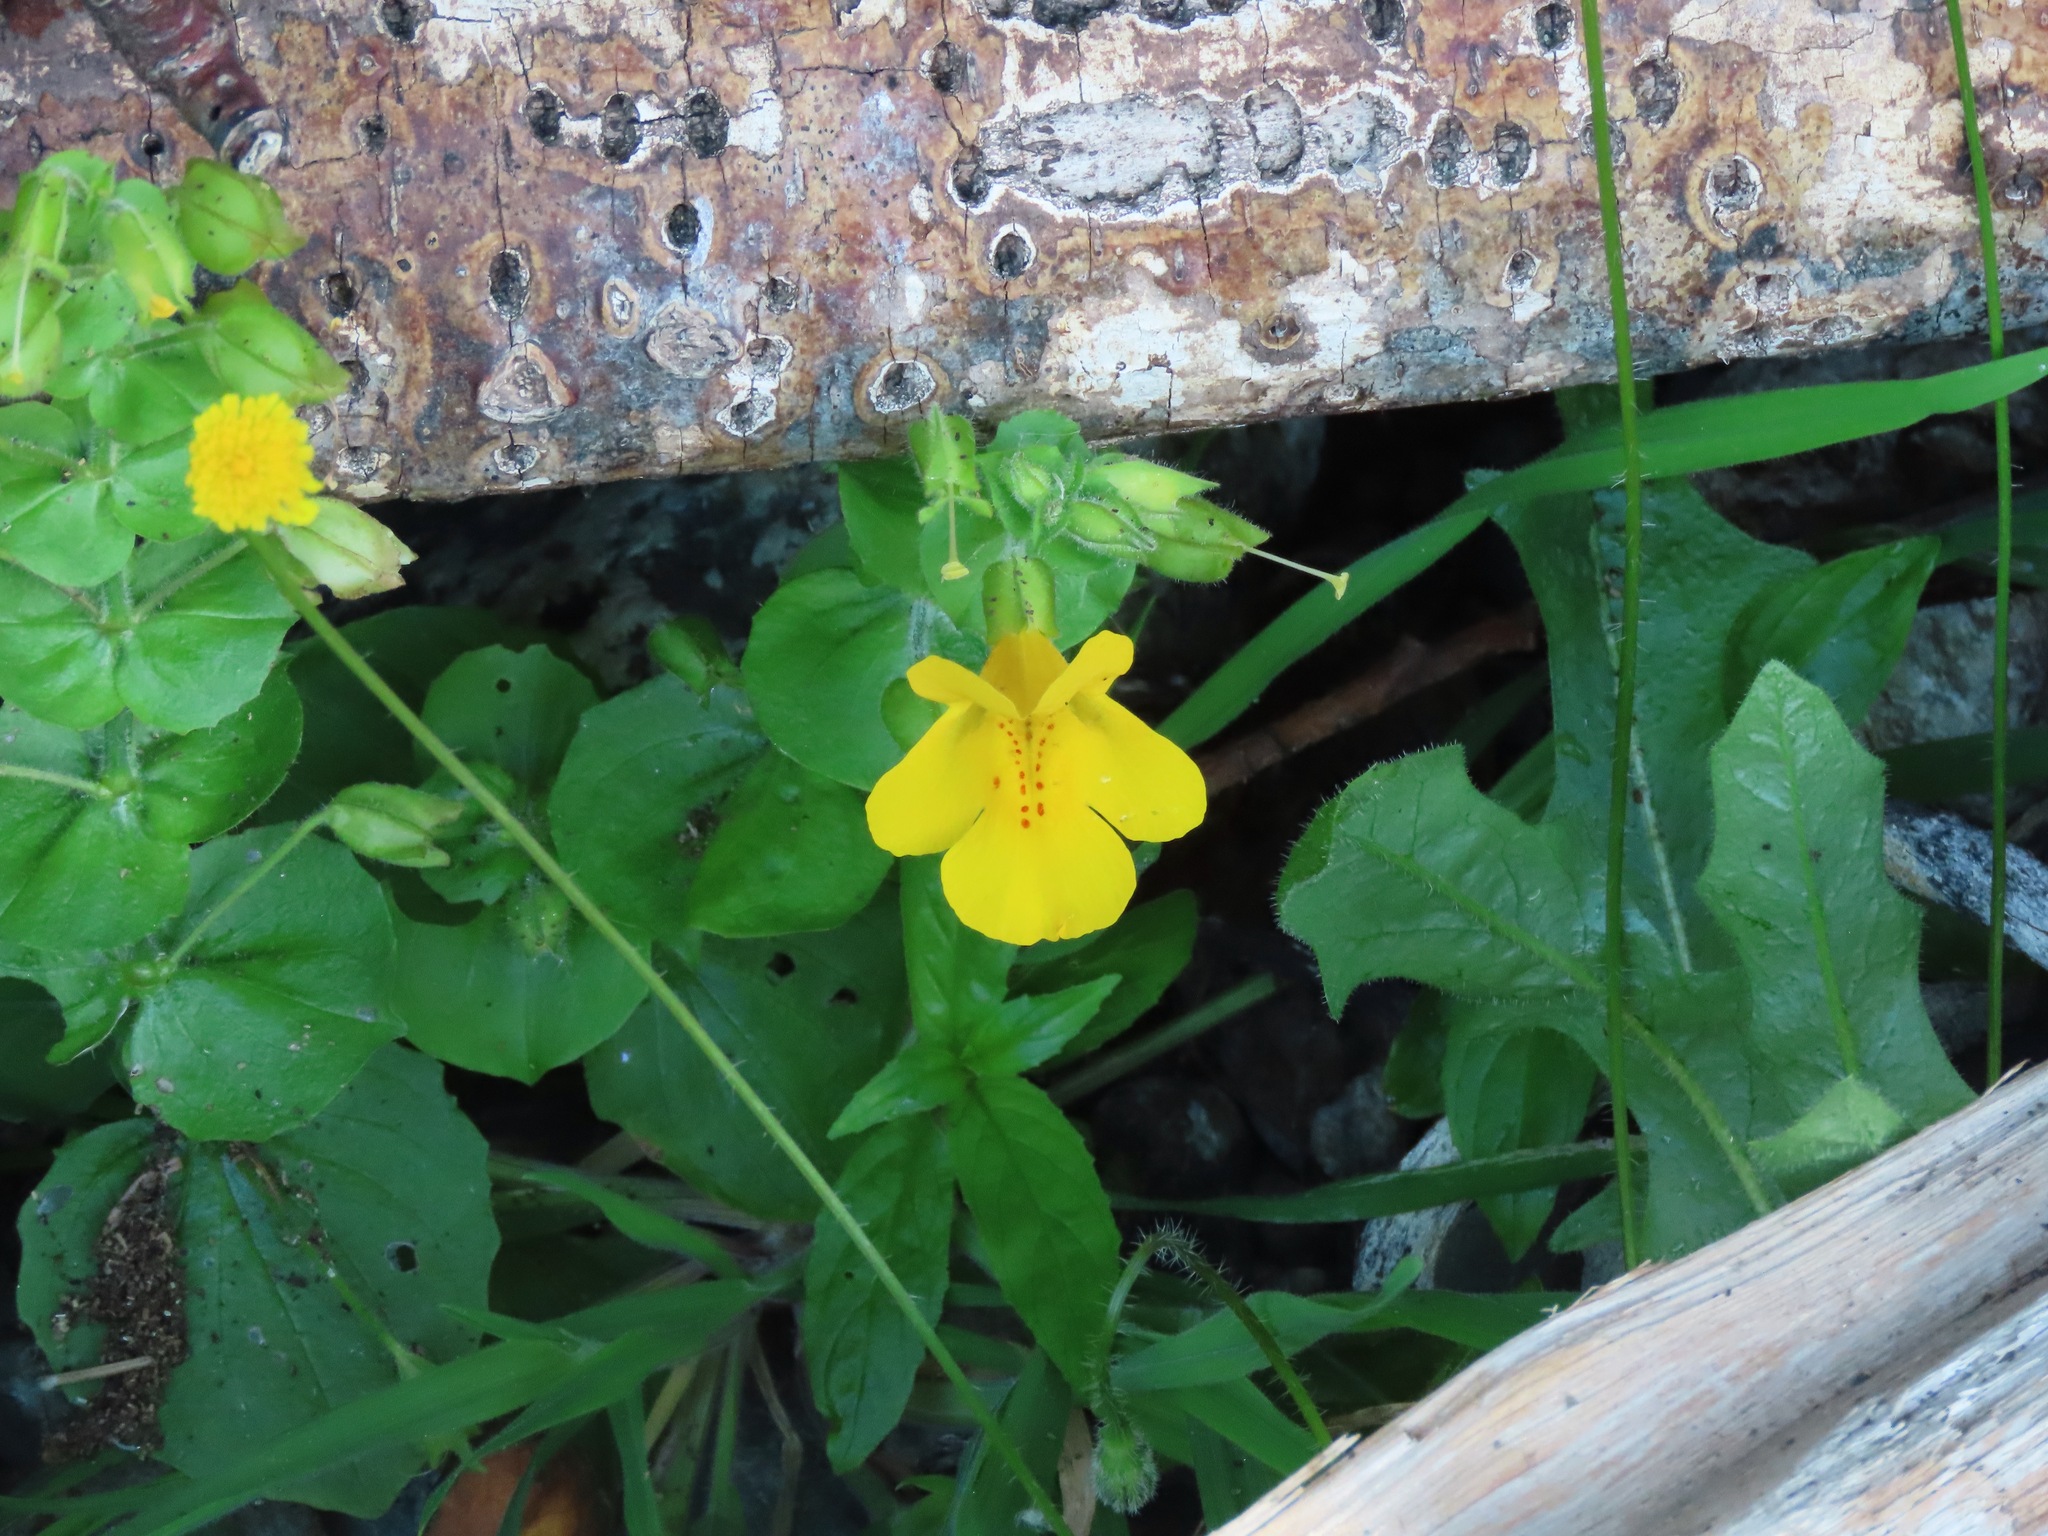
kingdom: Plantae
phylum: Tracheophyta
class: Magnoliopsida
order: Lamiales
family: Phrymaceae
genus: Erythranthe
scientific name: Erythranthe guttata
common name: Monkeyflower
